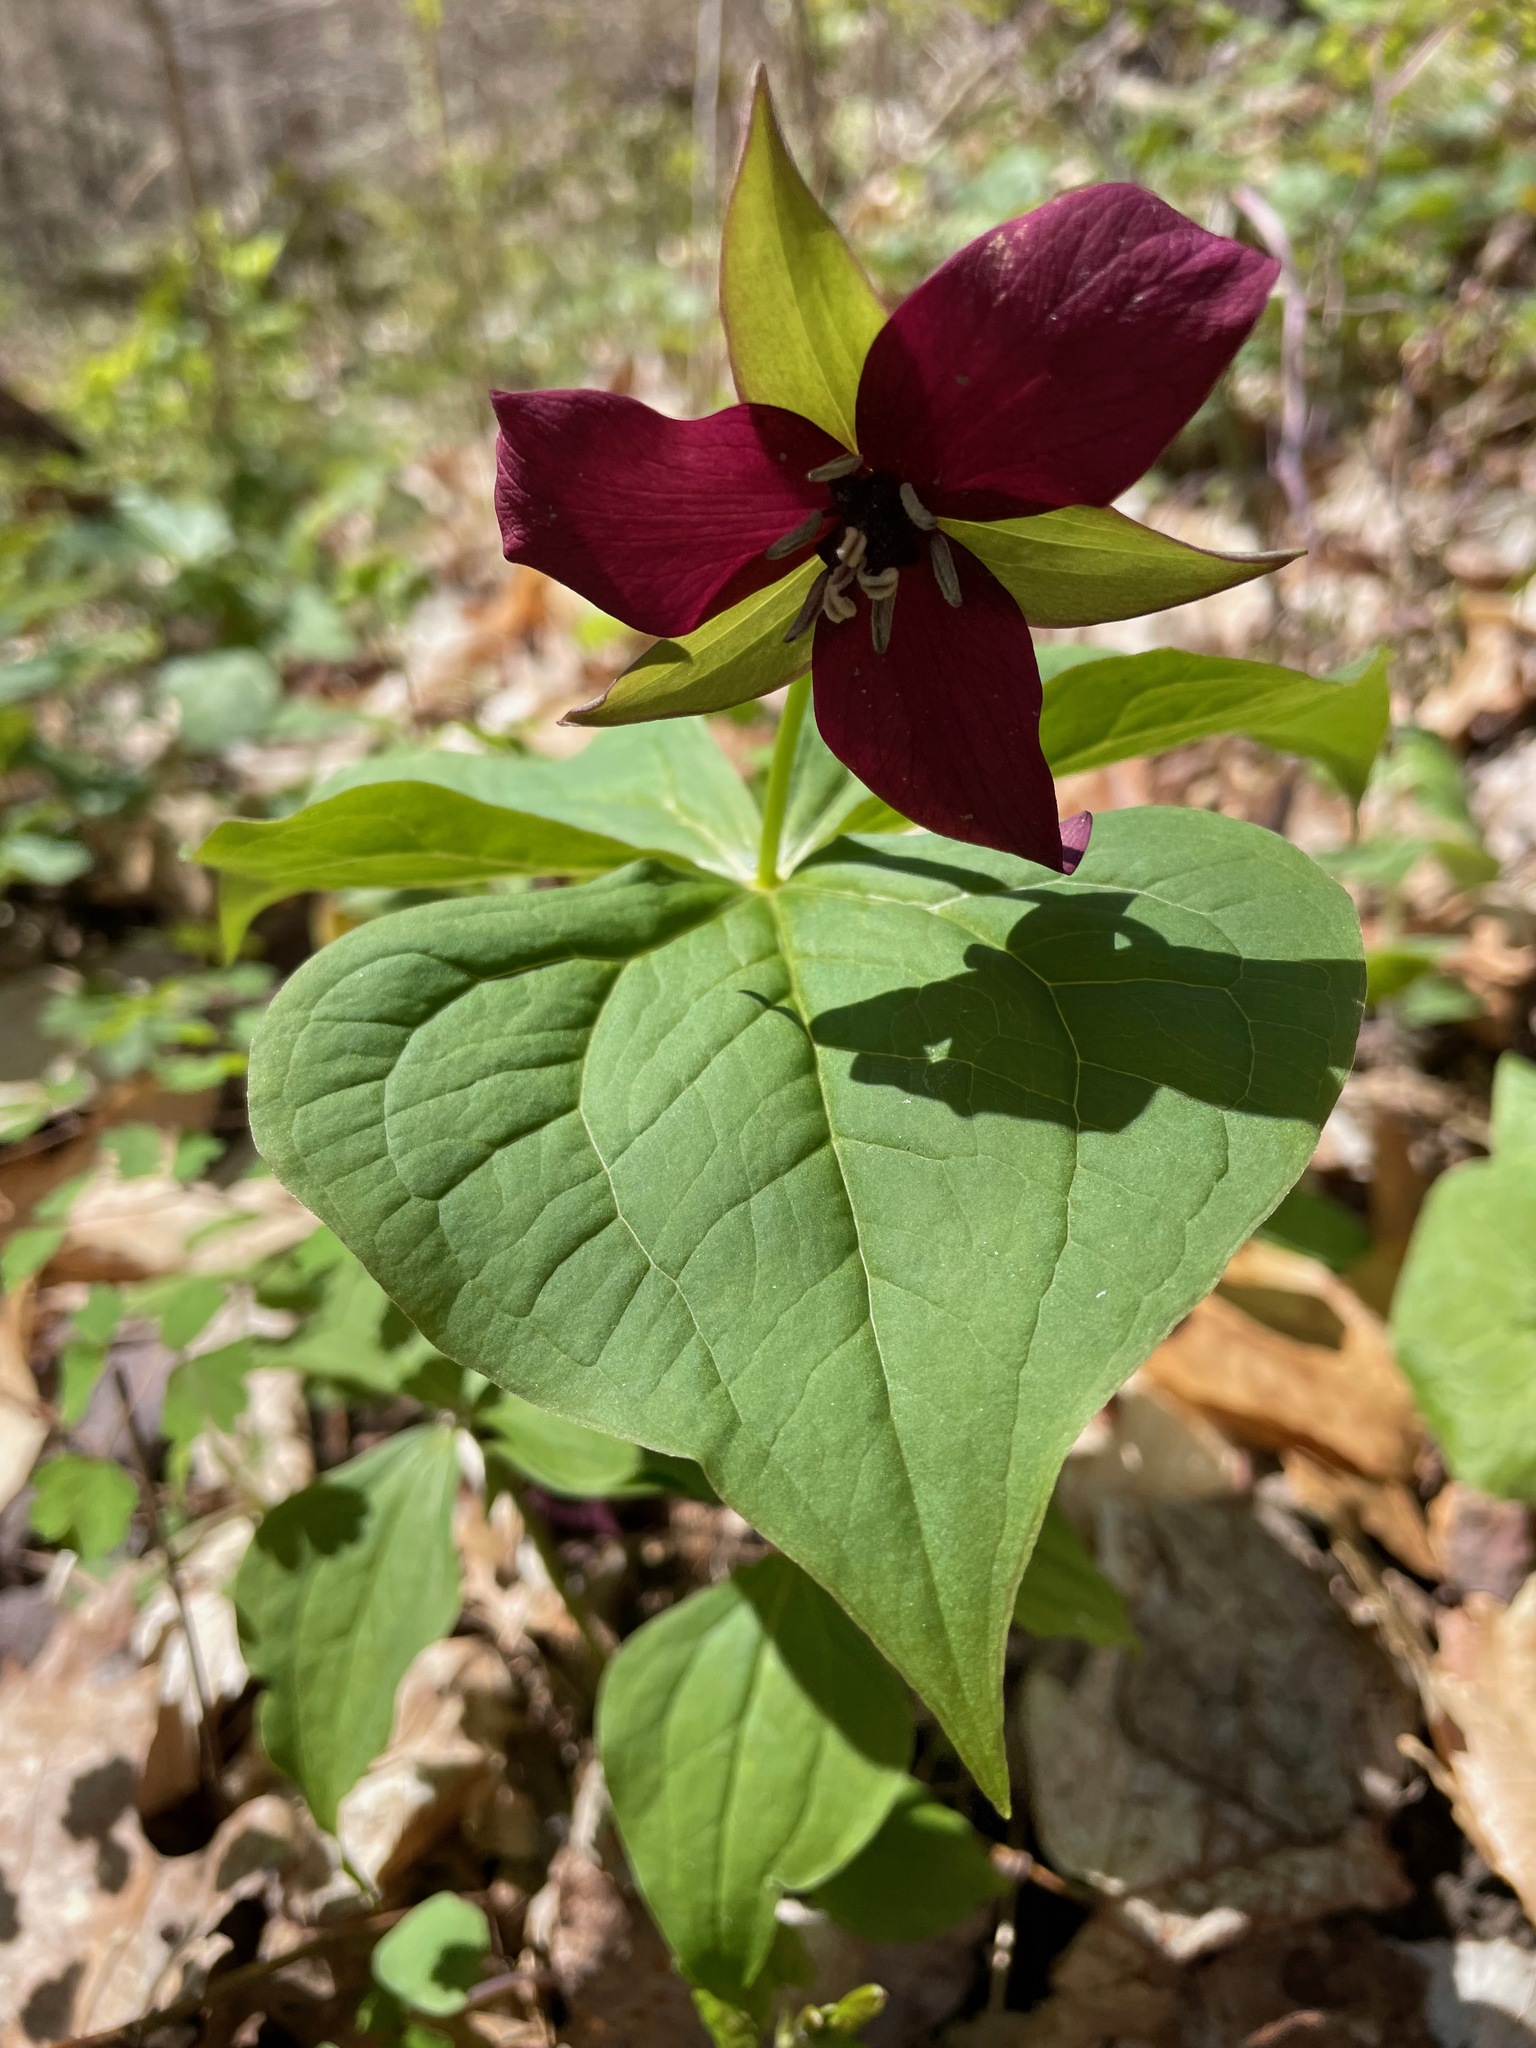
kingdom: Plantae
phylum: Tracheophyta
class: Liliopsida
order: Liliales
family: Melanthiaceae
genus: Trillium
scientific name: Trillium erectum
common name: Purple trillium
